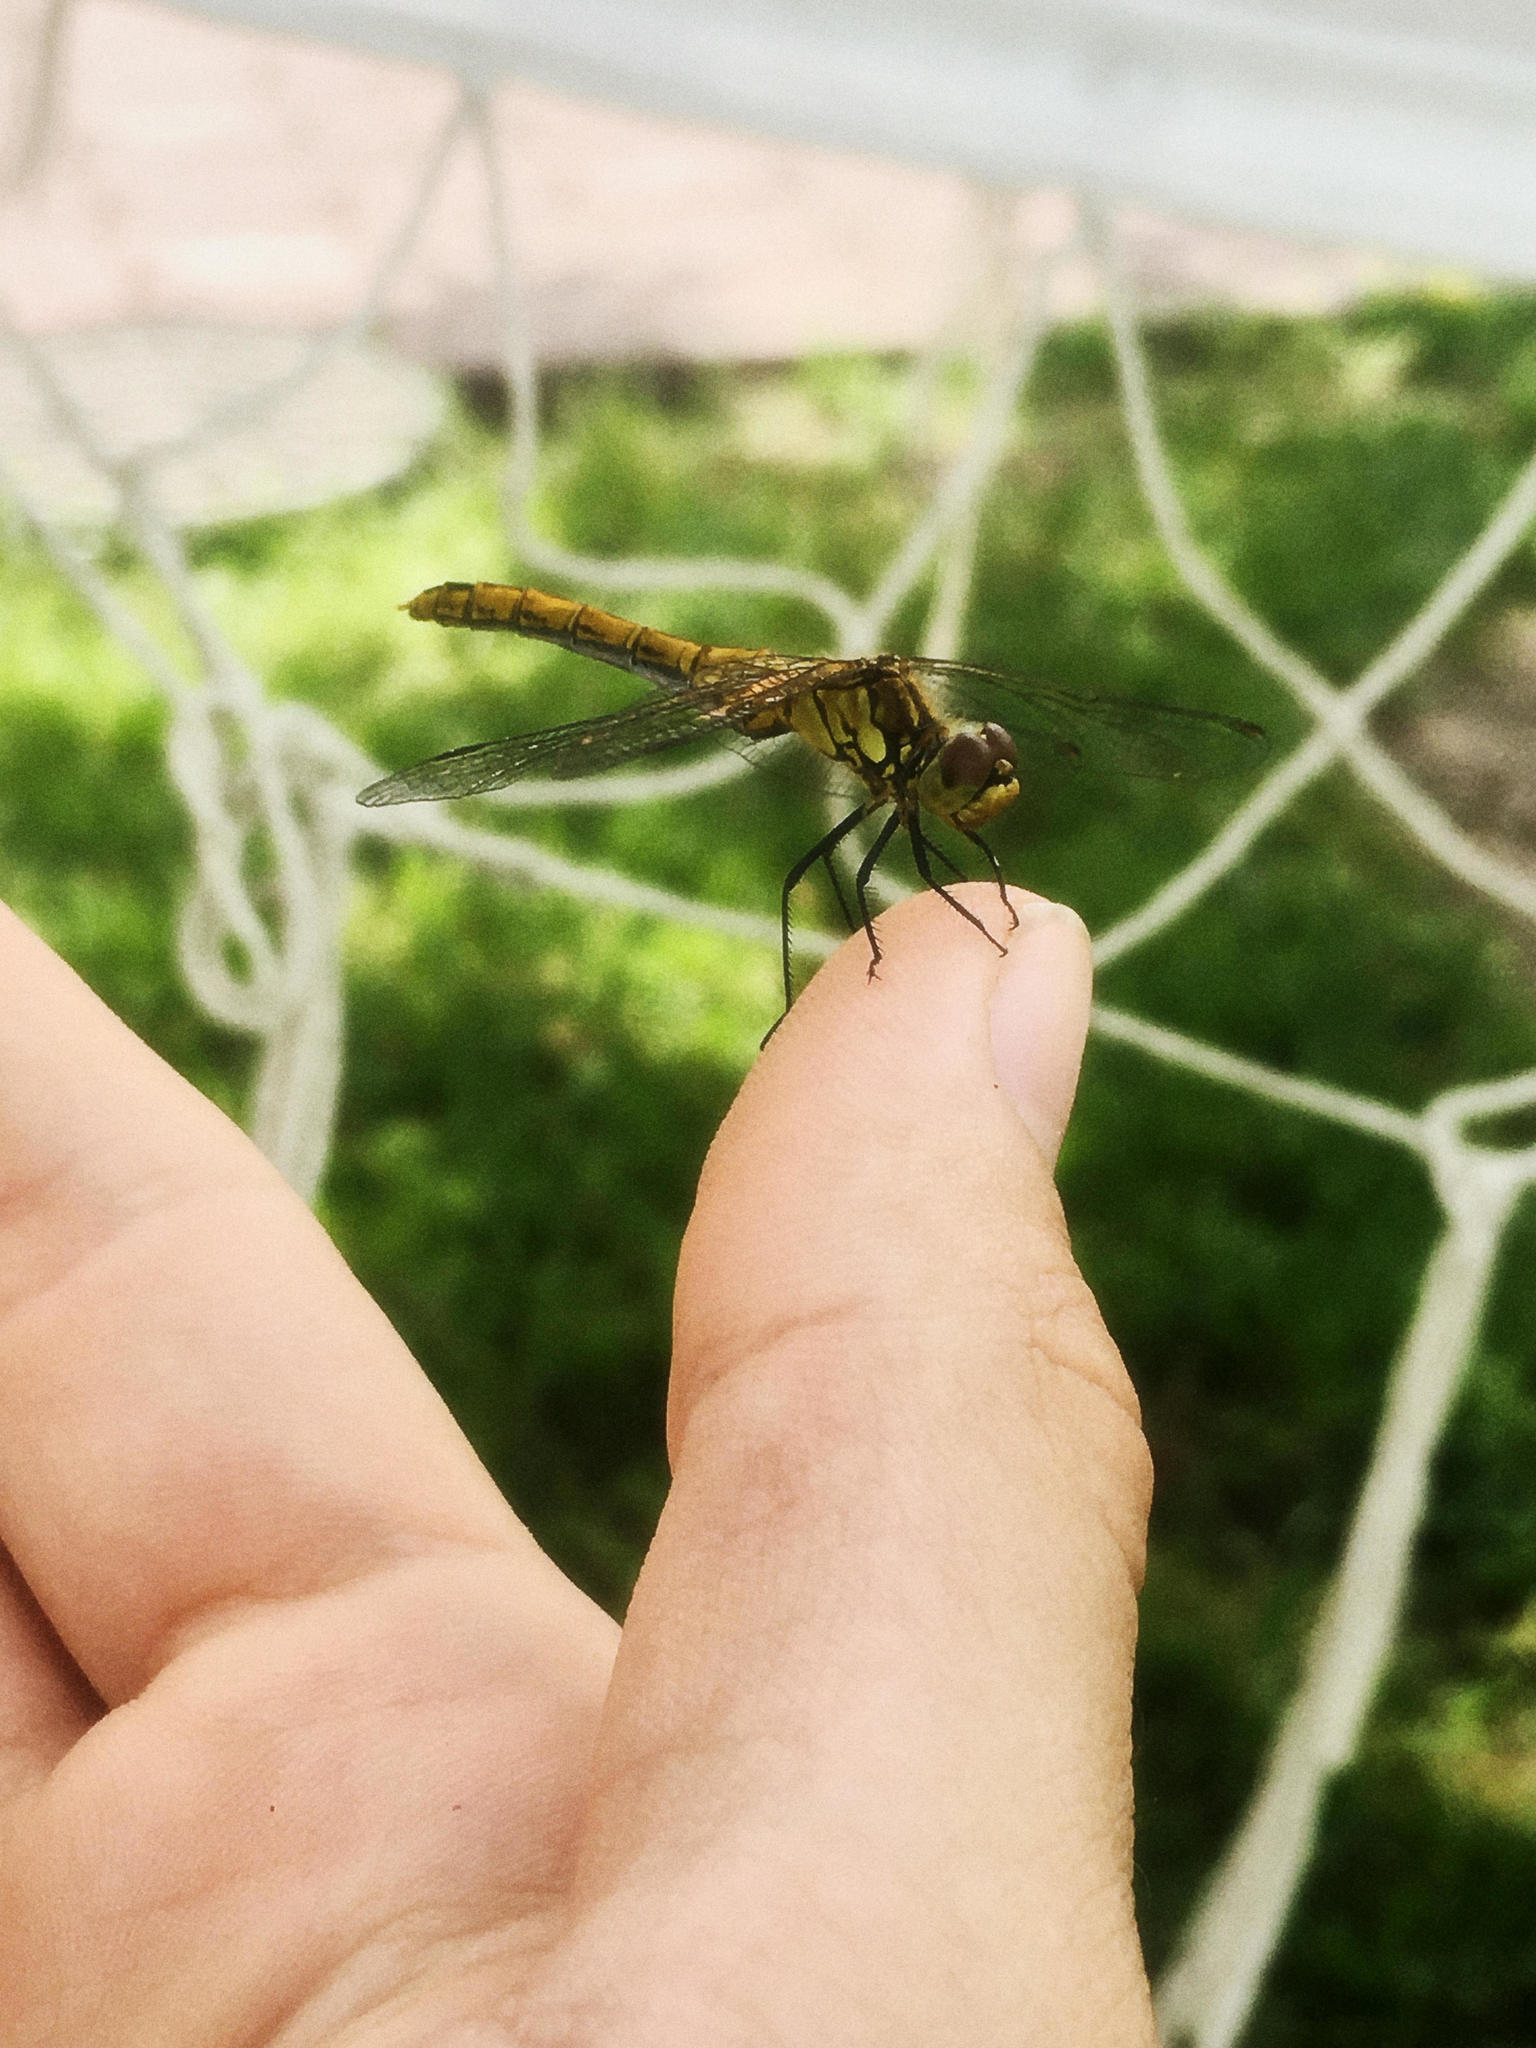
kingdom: Animalia
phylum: Arthropoda
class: Insecta
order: Odonata
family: Libellulidae
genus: Sympetrum
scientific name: Sympetrum sanguineum
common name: Ruddy darter
